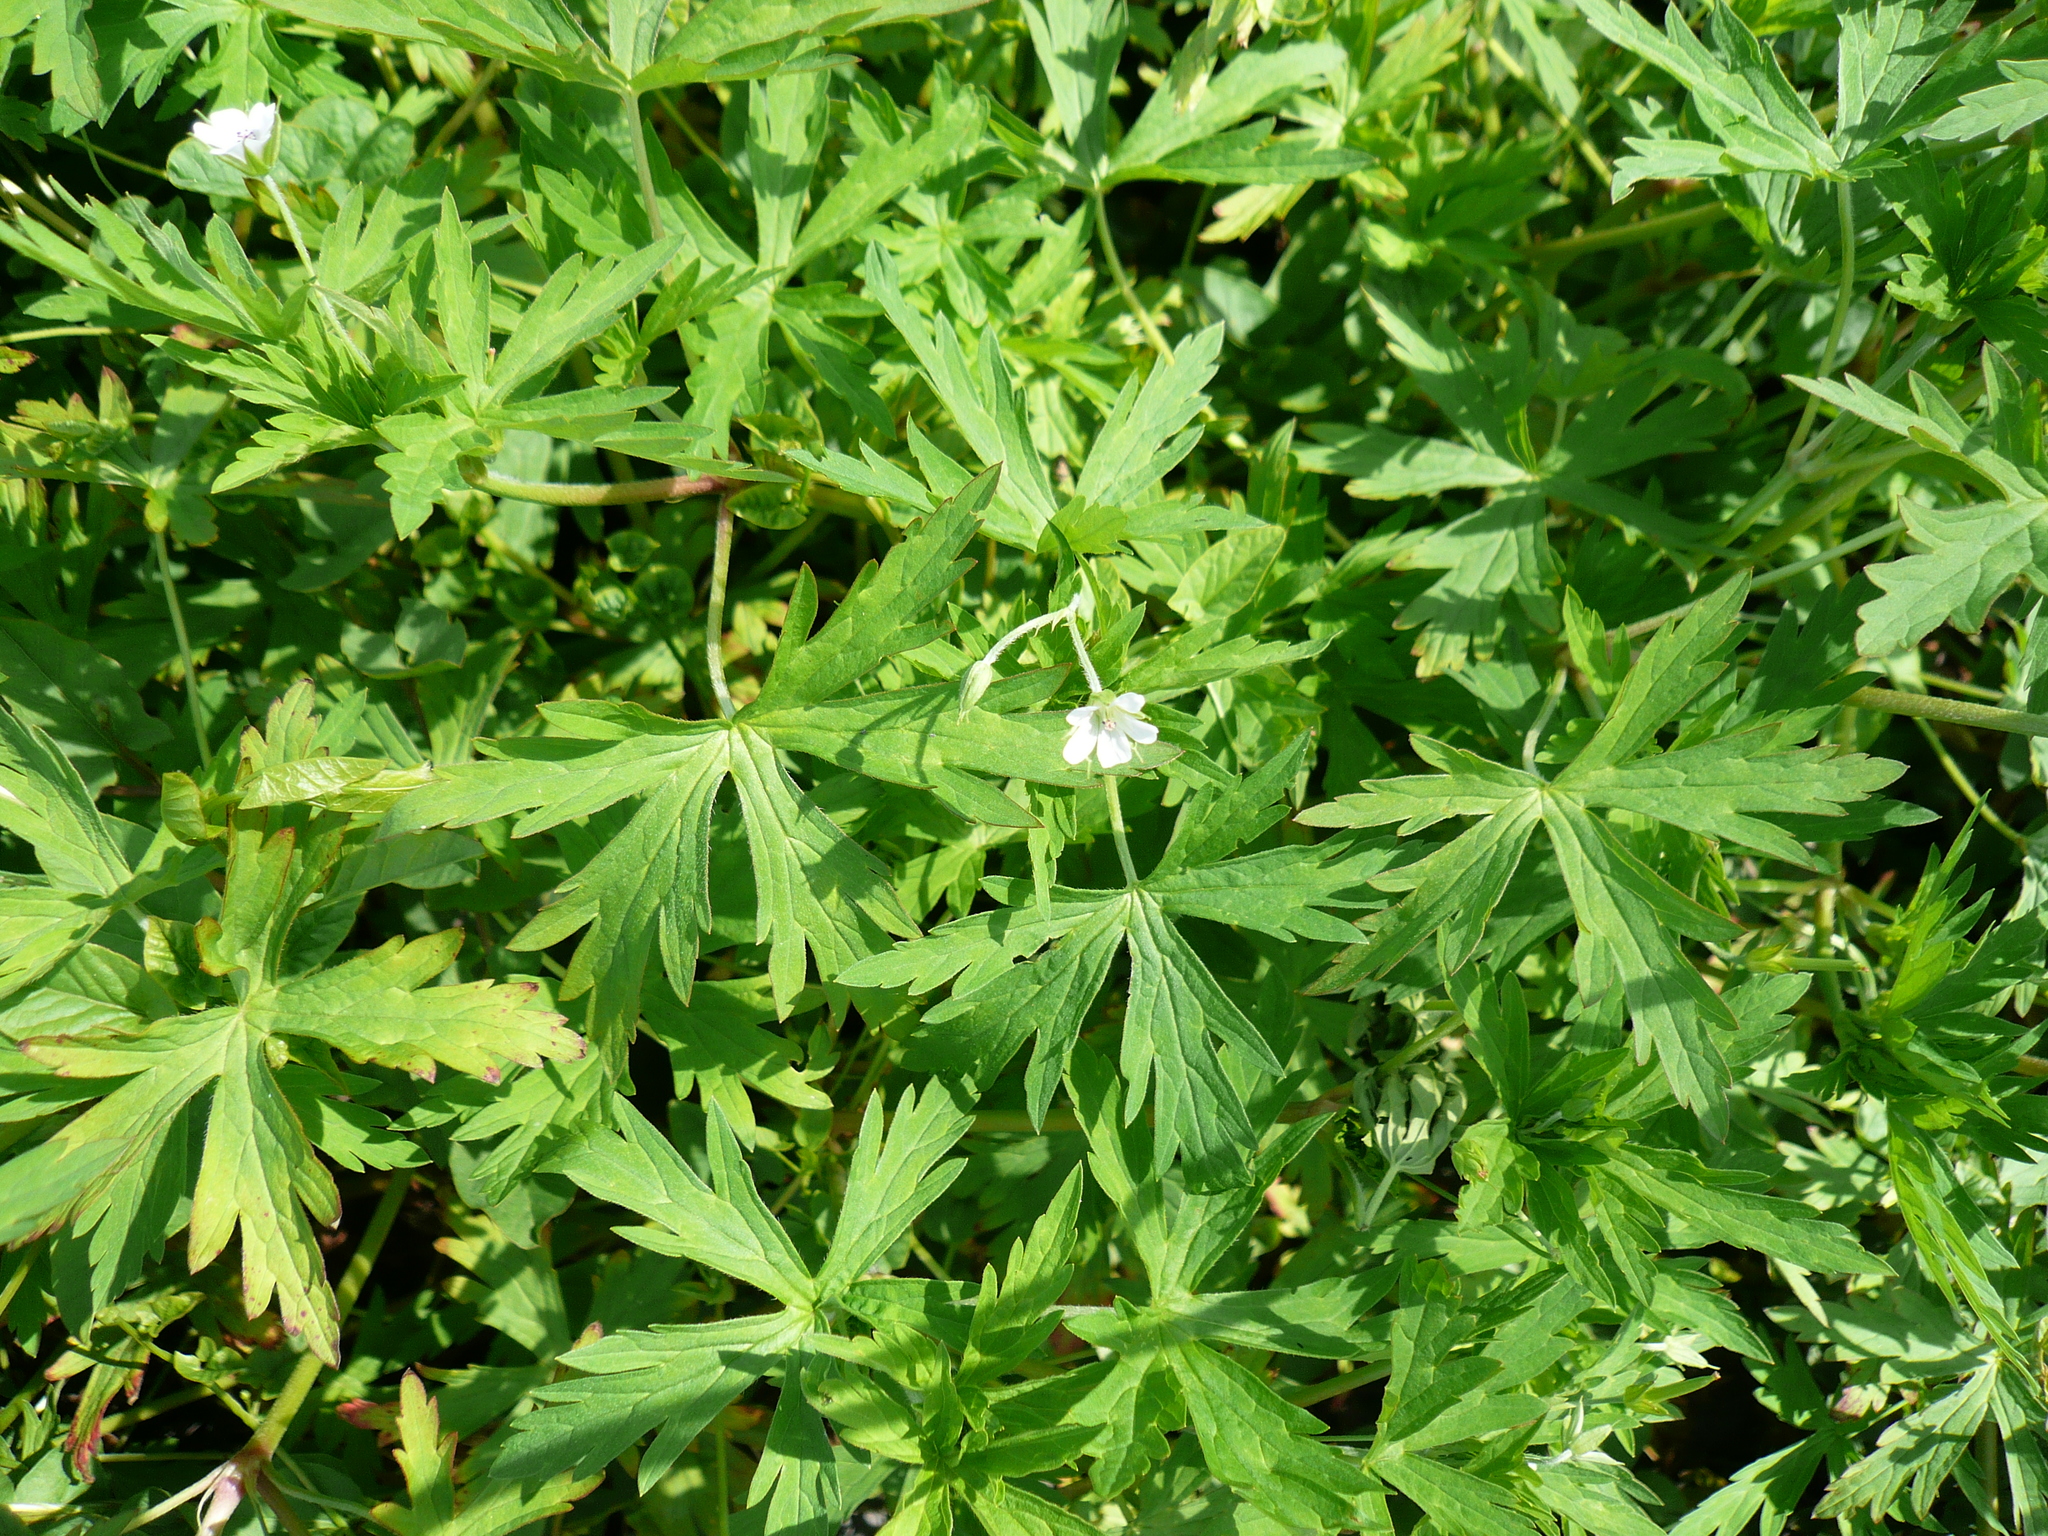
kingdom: Plantae
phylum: Tracheophyta
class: Magnoliopsida
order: Geraniales
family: Geraniaceae
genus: Geranium
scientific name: Geranium sibiricum
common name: Siberian crane's-bill
